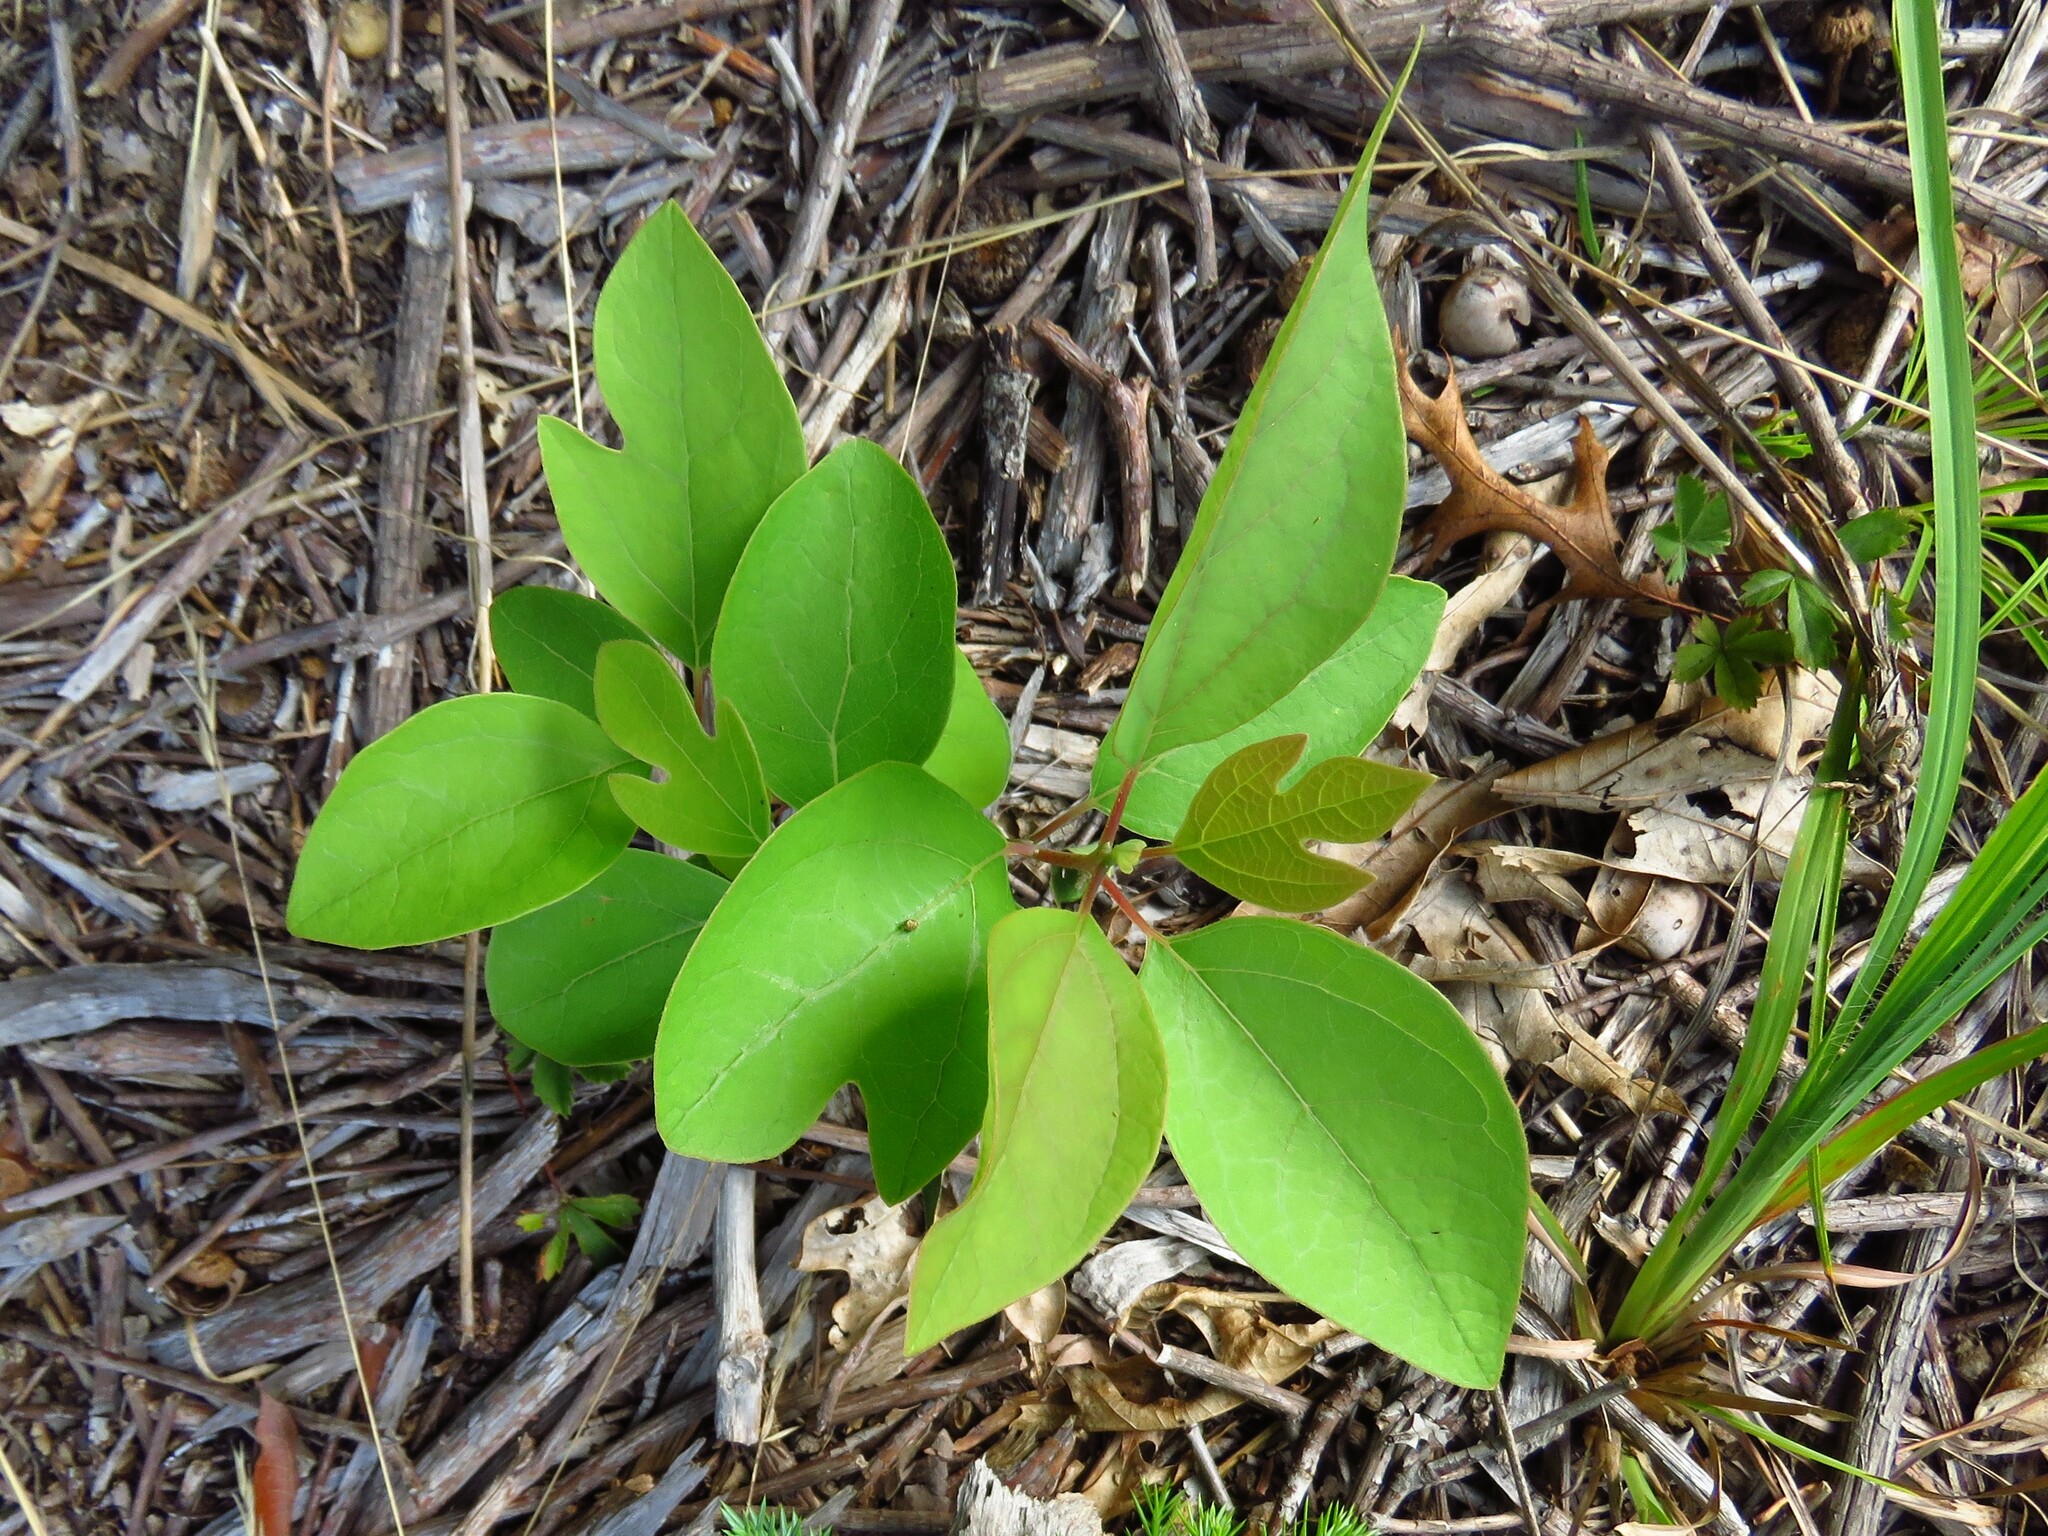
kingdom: Plantae
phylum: Tracheophyta
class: Magnoliopsida
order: Laurales
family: Lauraceae
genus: Sassafras
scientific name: Sassafras albidum
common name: Sassafras
